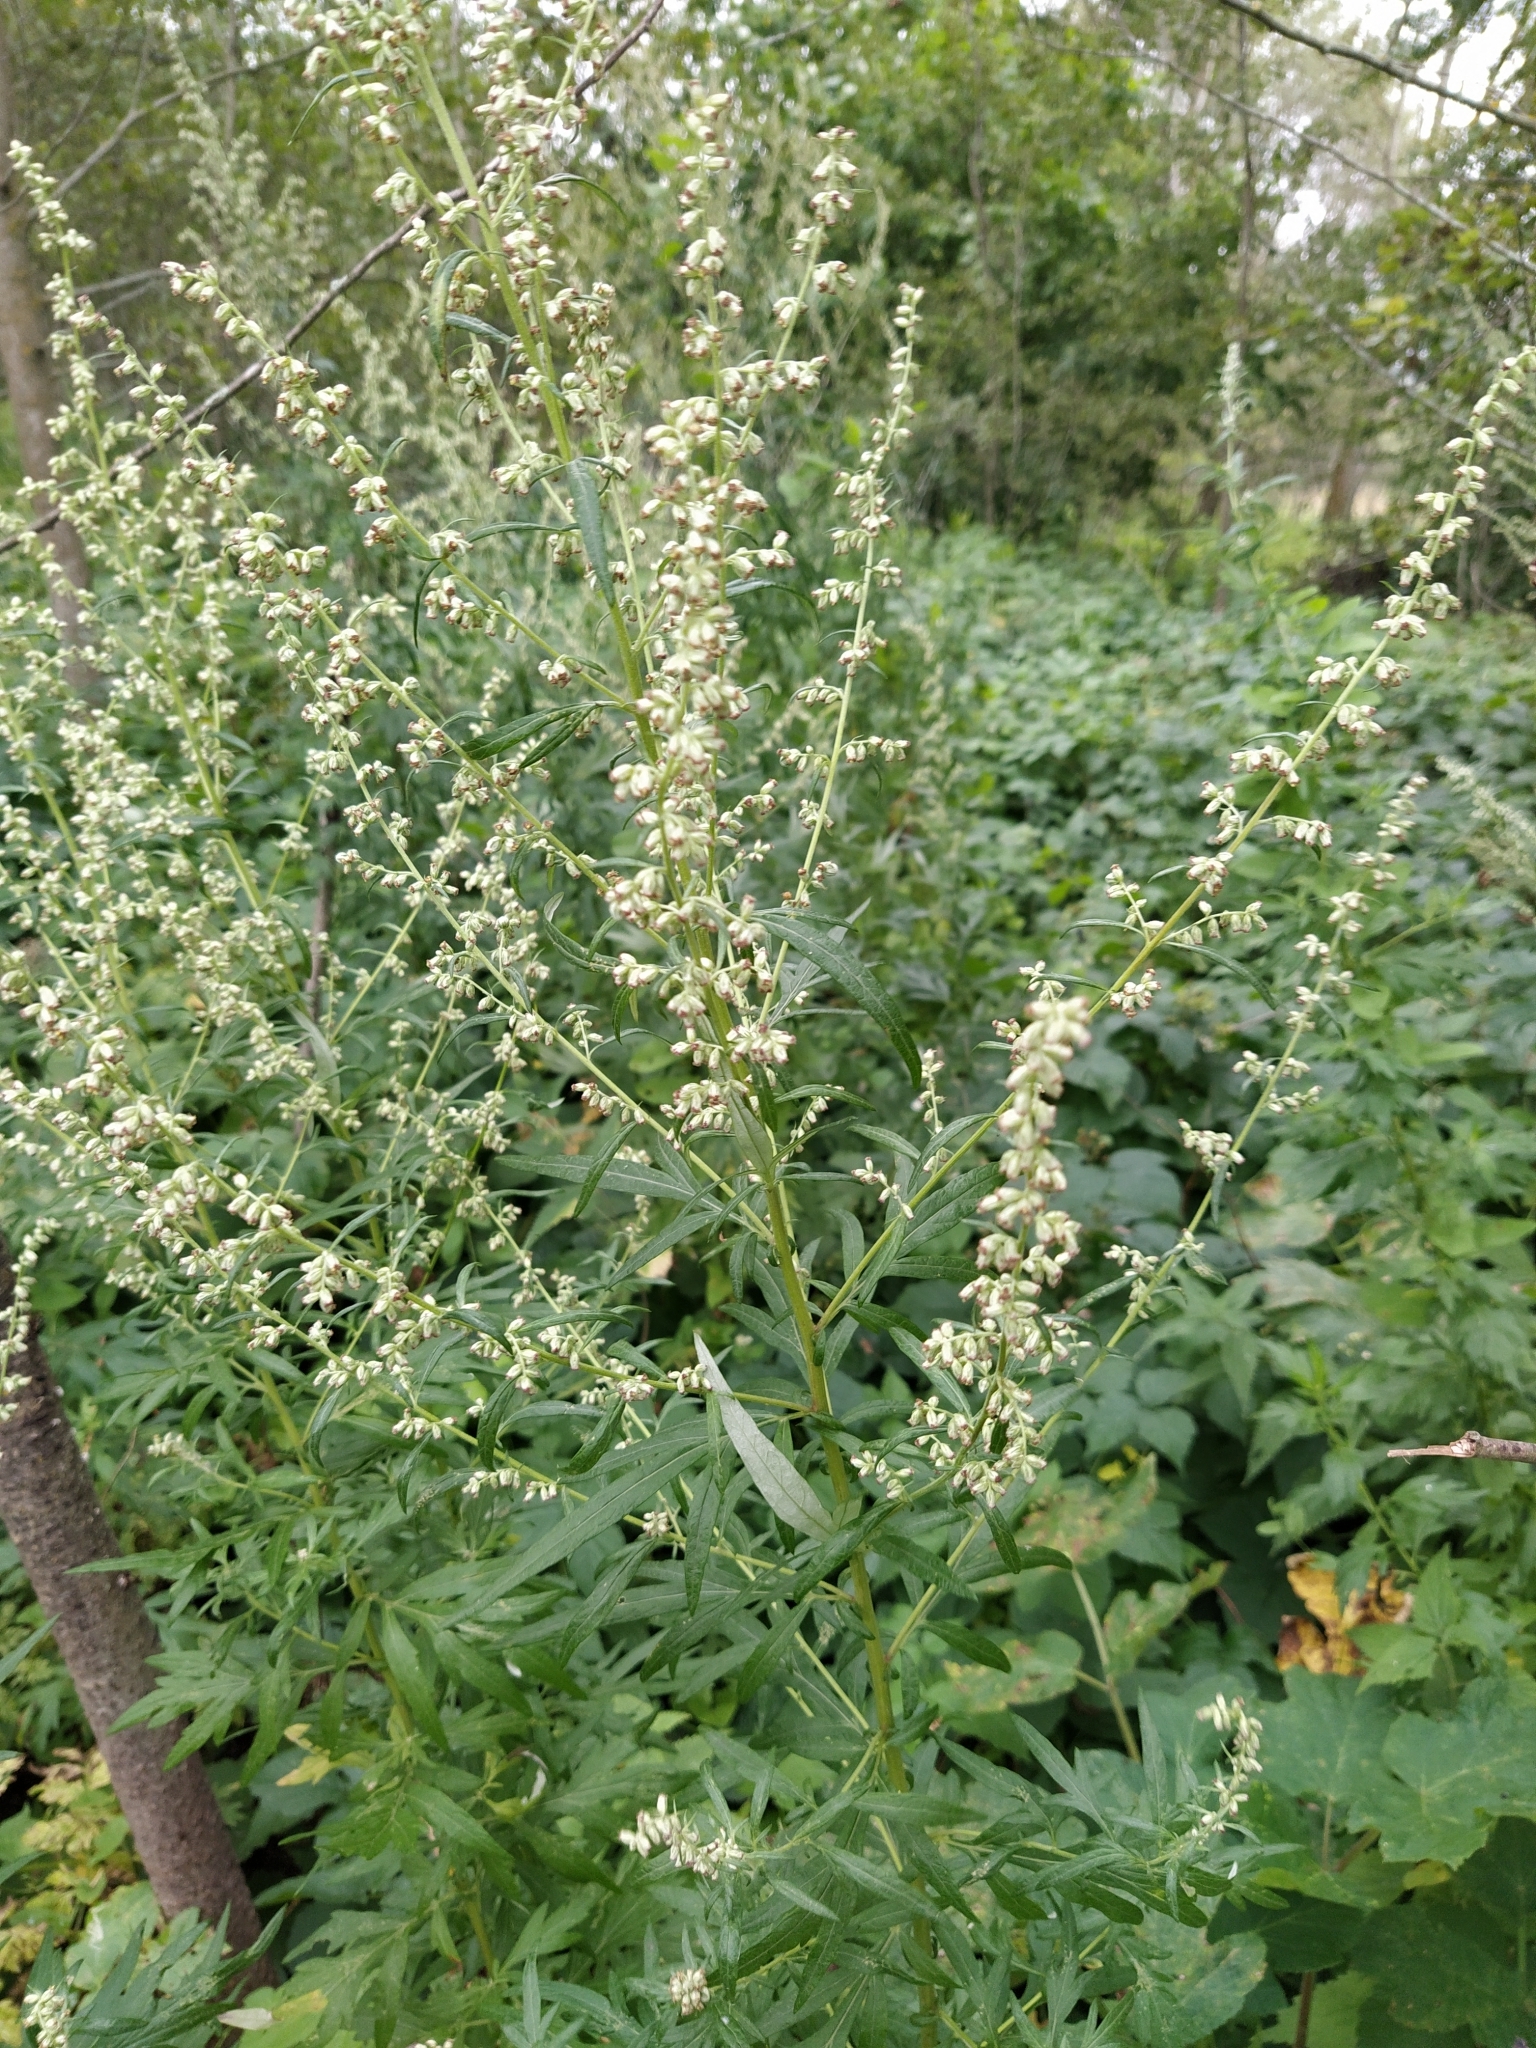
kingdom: Plantae
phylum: Tracheophyta
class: Magnoliopsida
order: Asterales
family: Asteraceae
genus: Artemisia
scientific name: Artemisia vulgaris
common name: Mugwort
